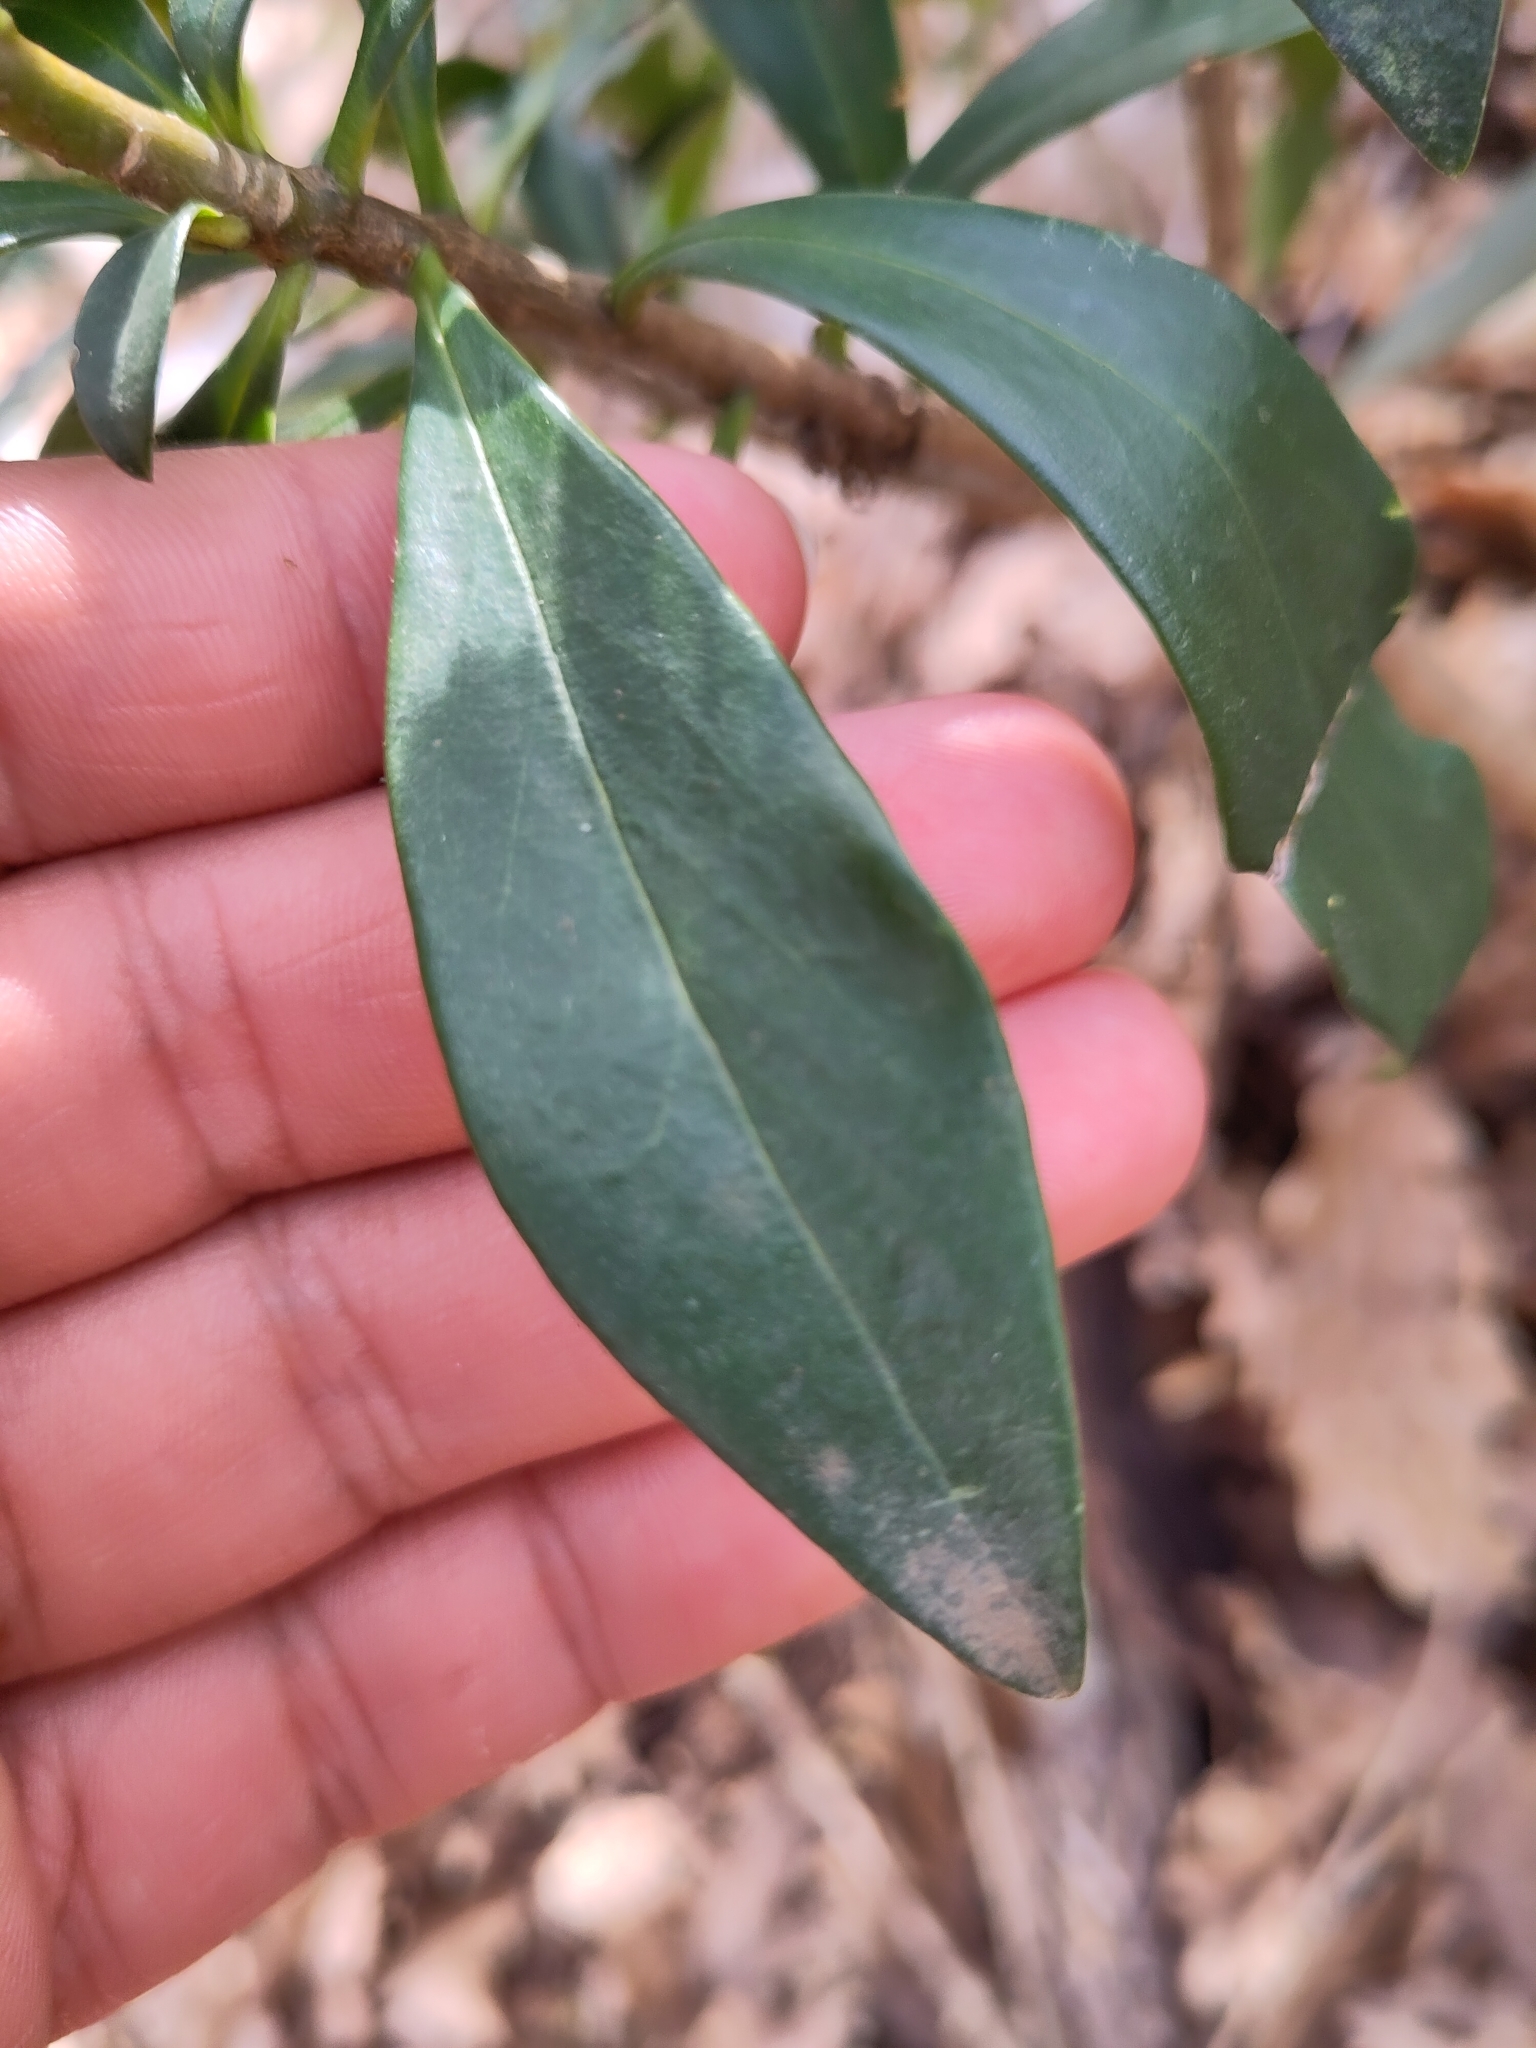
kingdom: Plantae
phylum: Tracheophyta
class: Magnoliopsida
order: Malvales
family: Thymelaeaceae
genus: Daphne
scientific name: Daphne laureola
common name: Spurge-laurel
